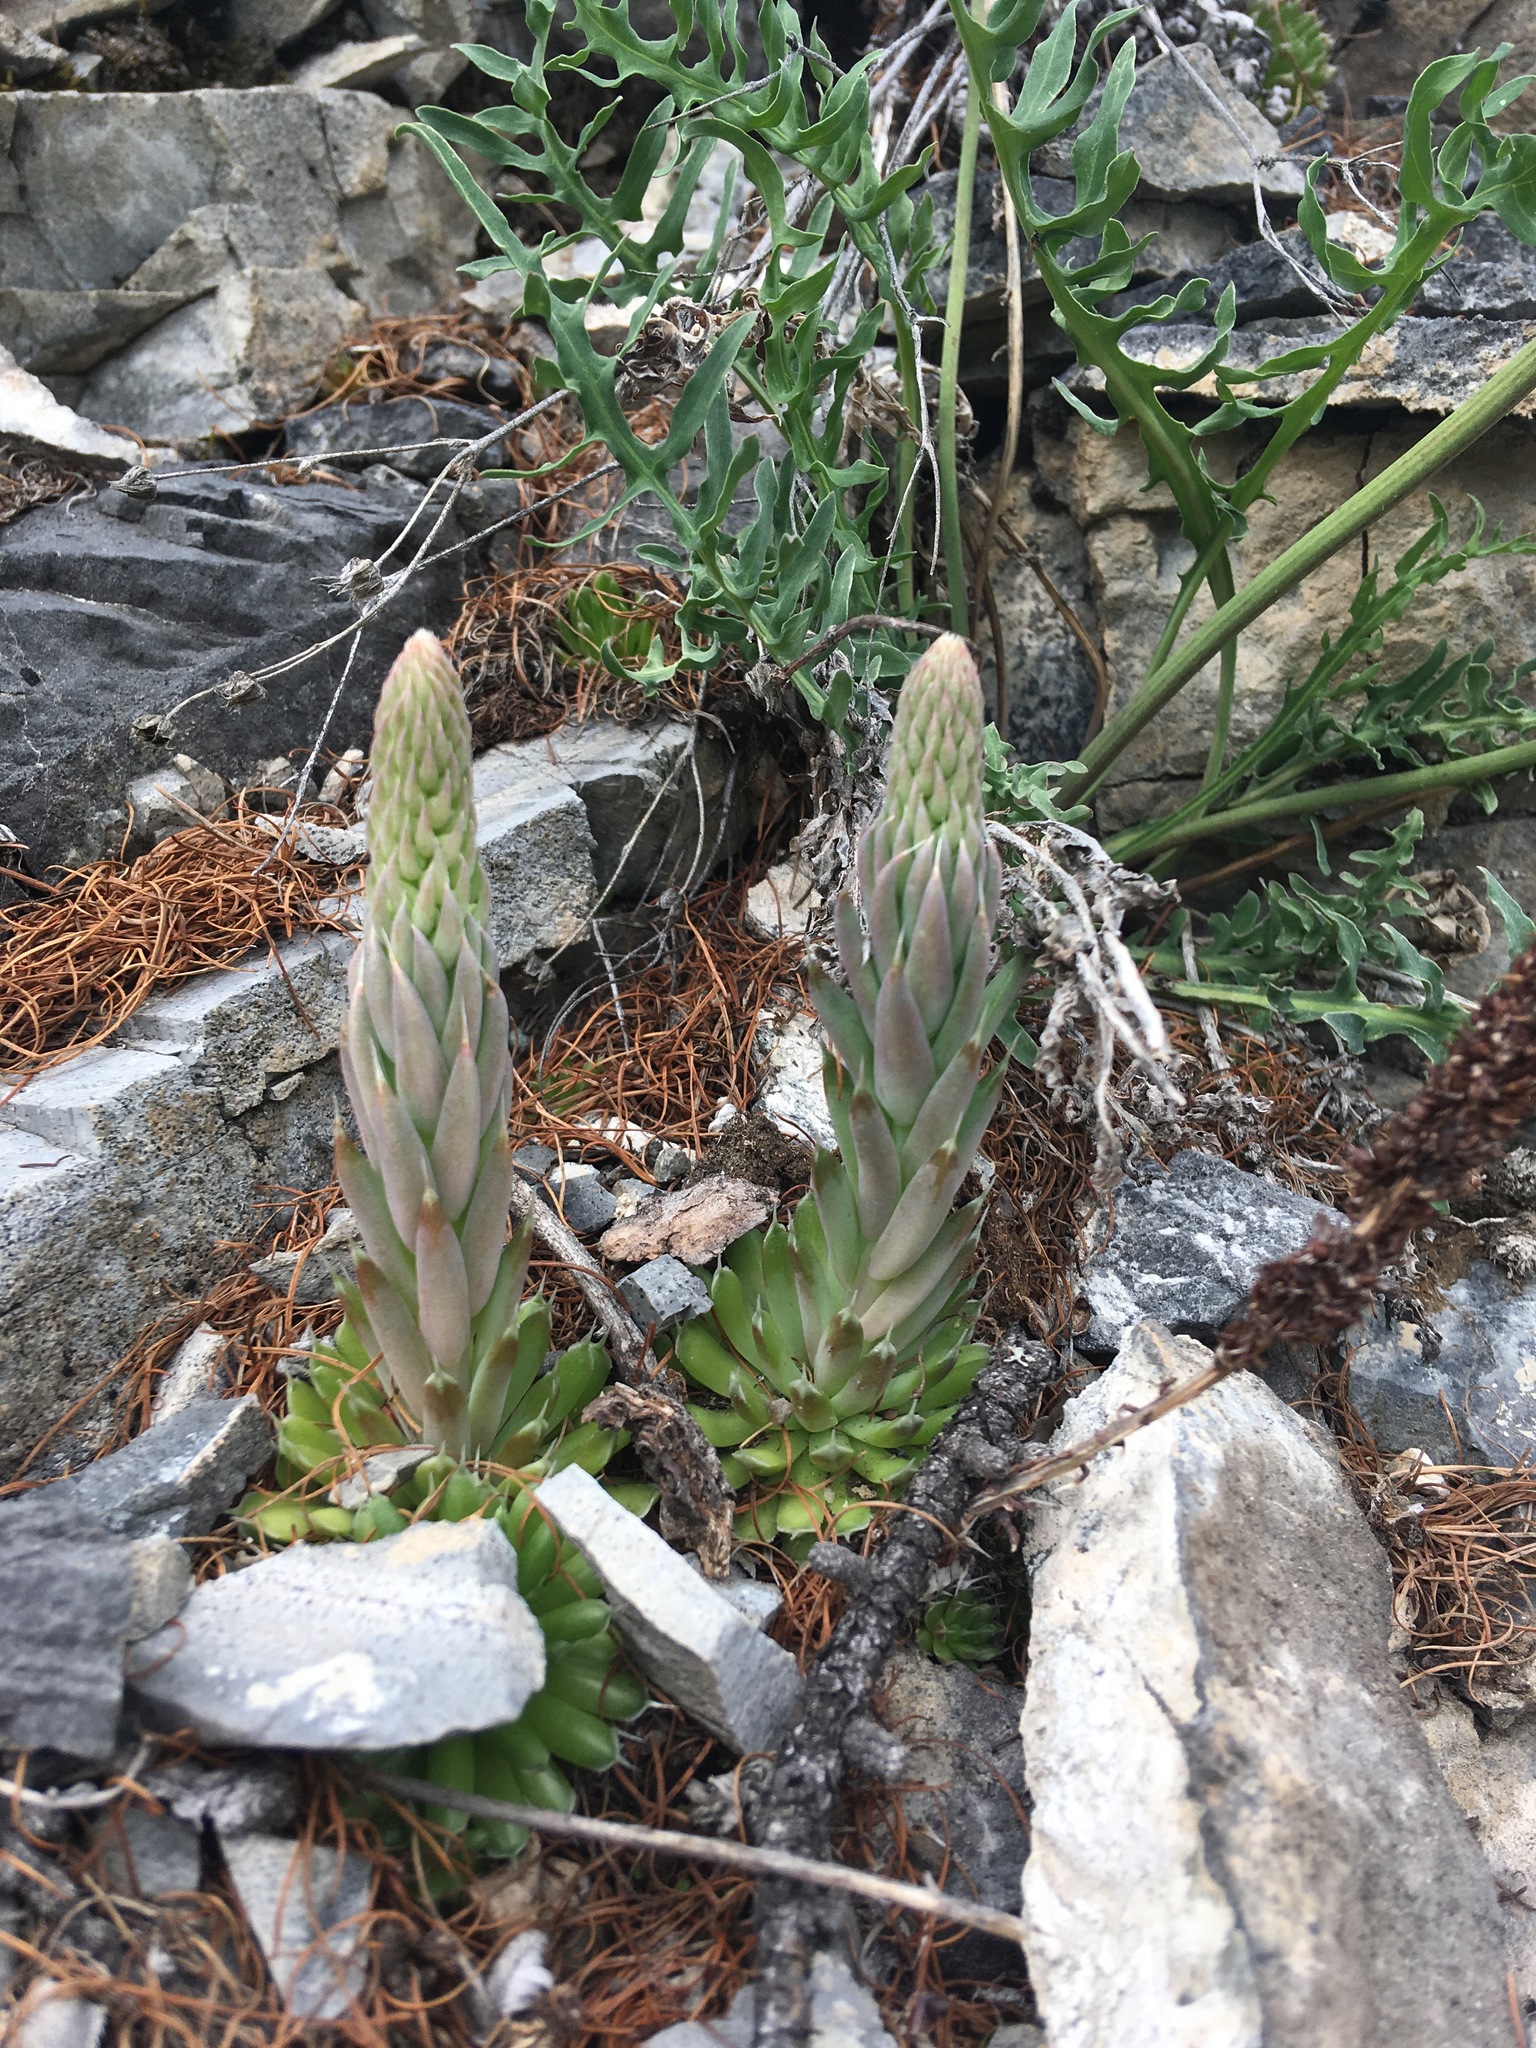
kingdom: Plantae
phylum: Tracheophyta
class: Magnoliopsida
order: Saxifragales
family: Crassulaceae
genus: Orostachys
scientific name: Orostachys spinosa
